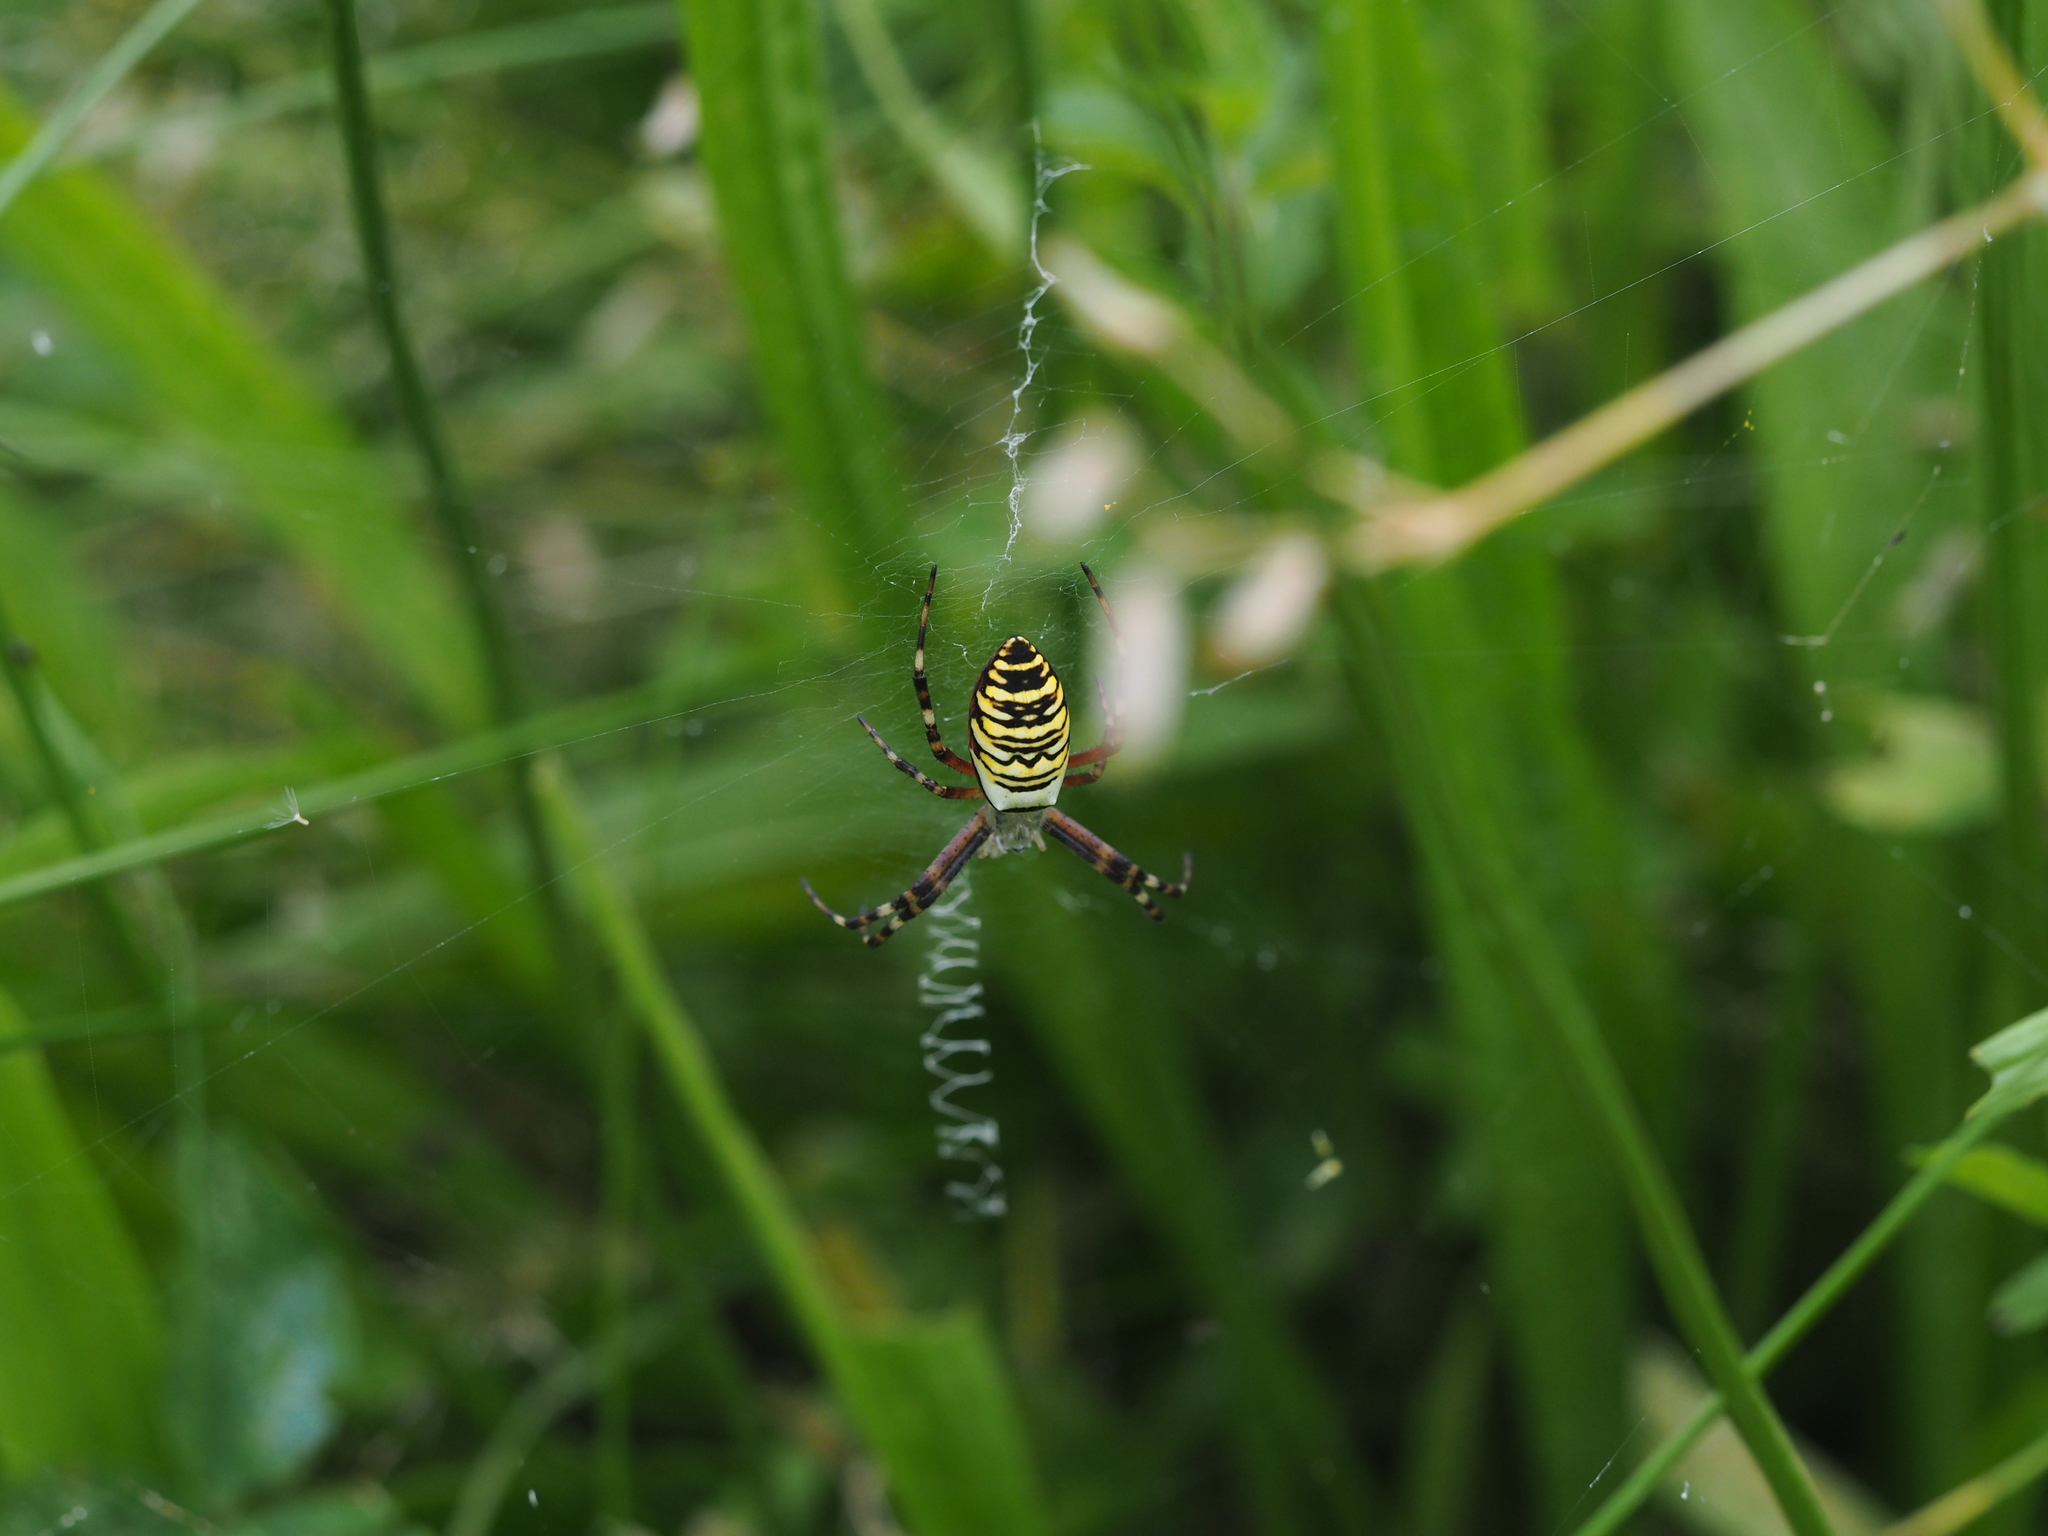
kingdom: Animalia
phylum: Arthropoda
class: Arachnida
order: Araneae
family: Araneidae
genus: Argiope
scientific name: Argiope bruennichi
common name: Wasp spider
